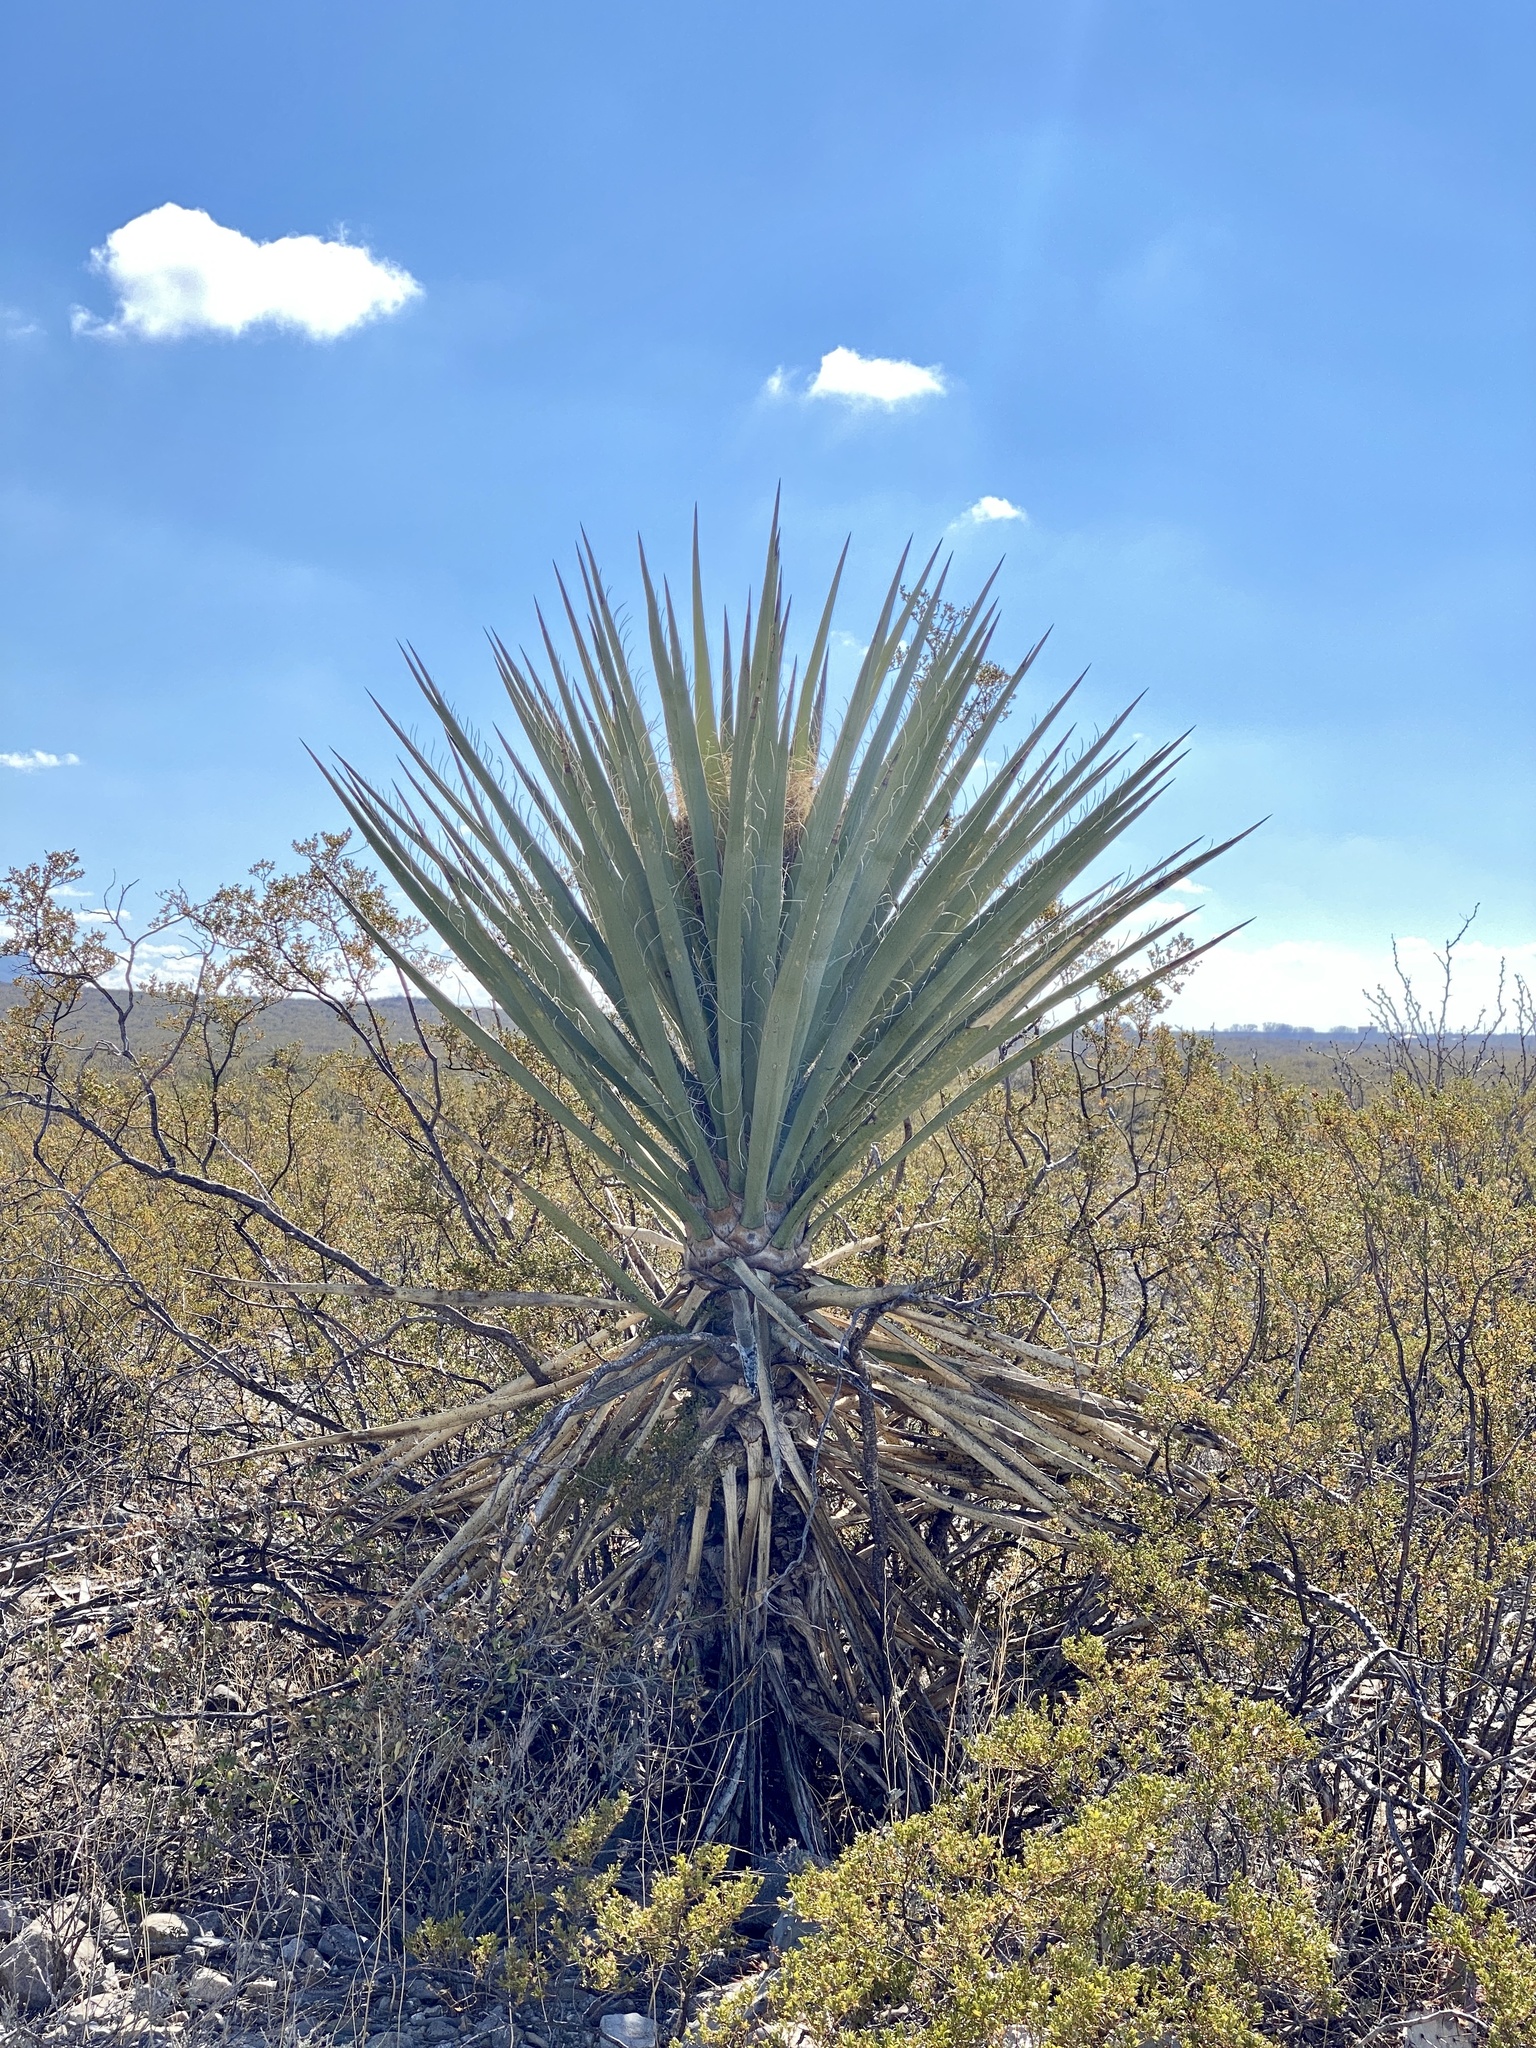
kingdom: Plantae
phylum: Tracheophyta
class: Liliopsida
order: Asparagales
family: Asparagaceae
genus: Yucca
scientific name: Yucca treculiana
